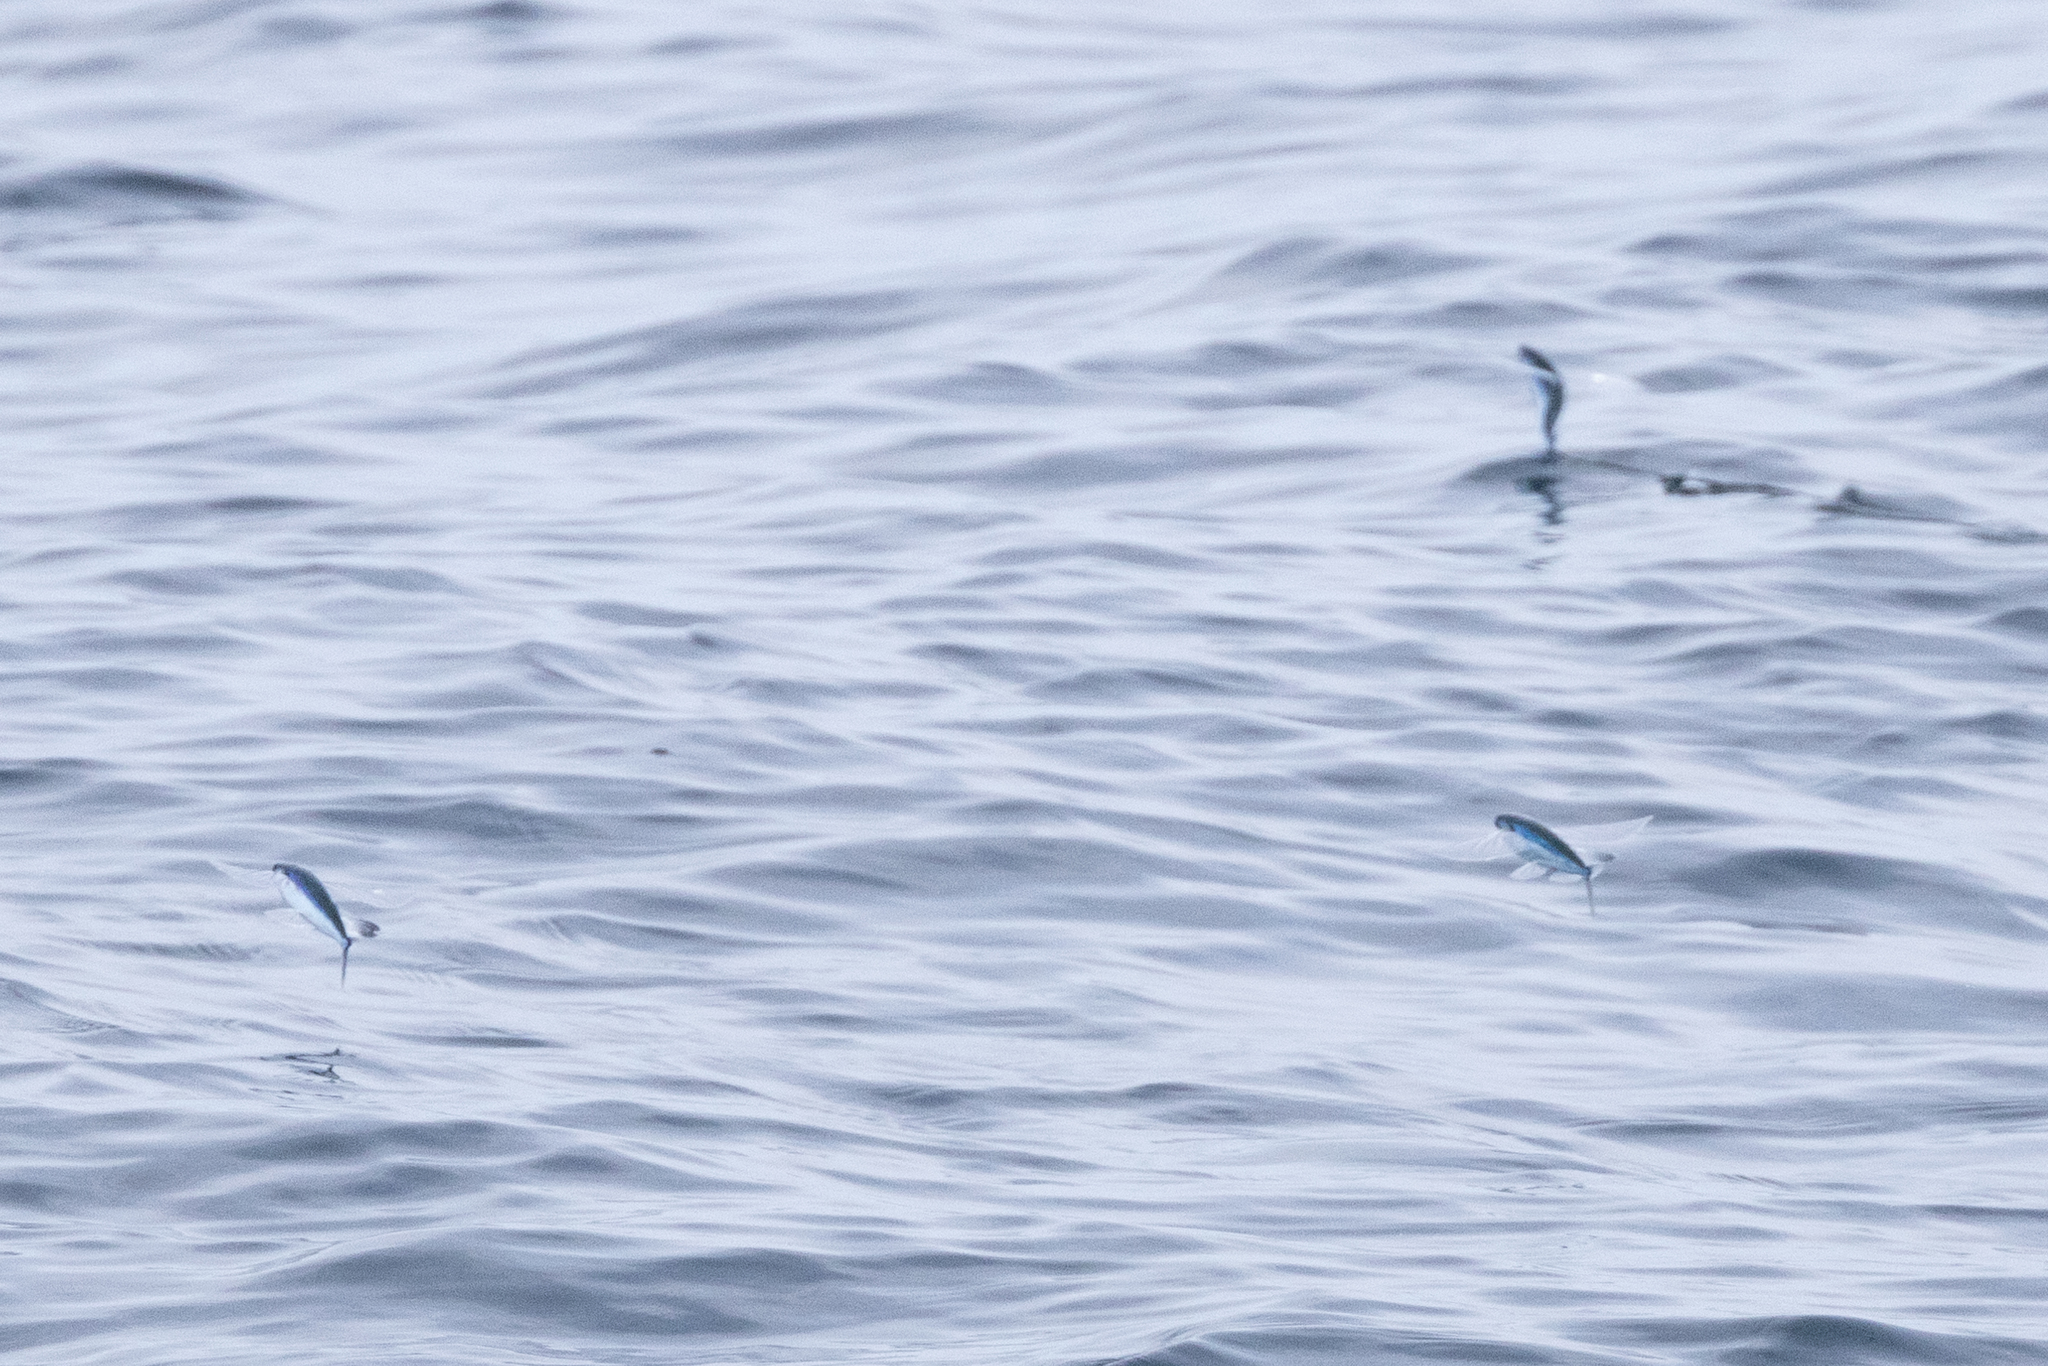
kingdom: Animalia
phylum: Chordata
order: Beloniformes
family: Exocoetidae
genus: Parexocoetus
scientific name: Parexocoetus hillianus
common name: Flyingfish
